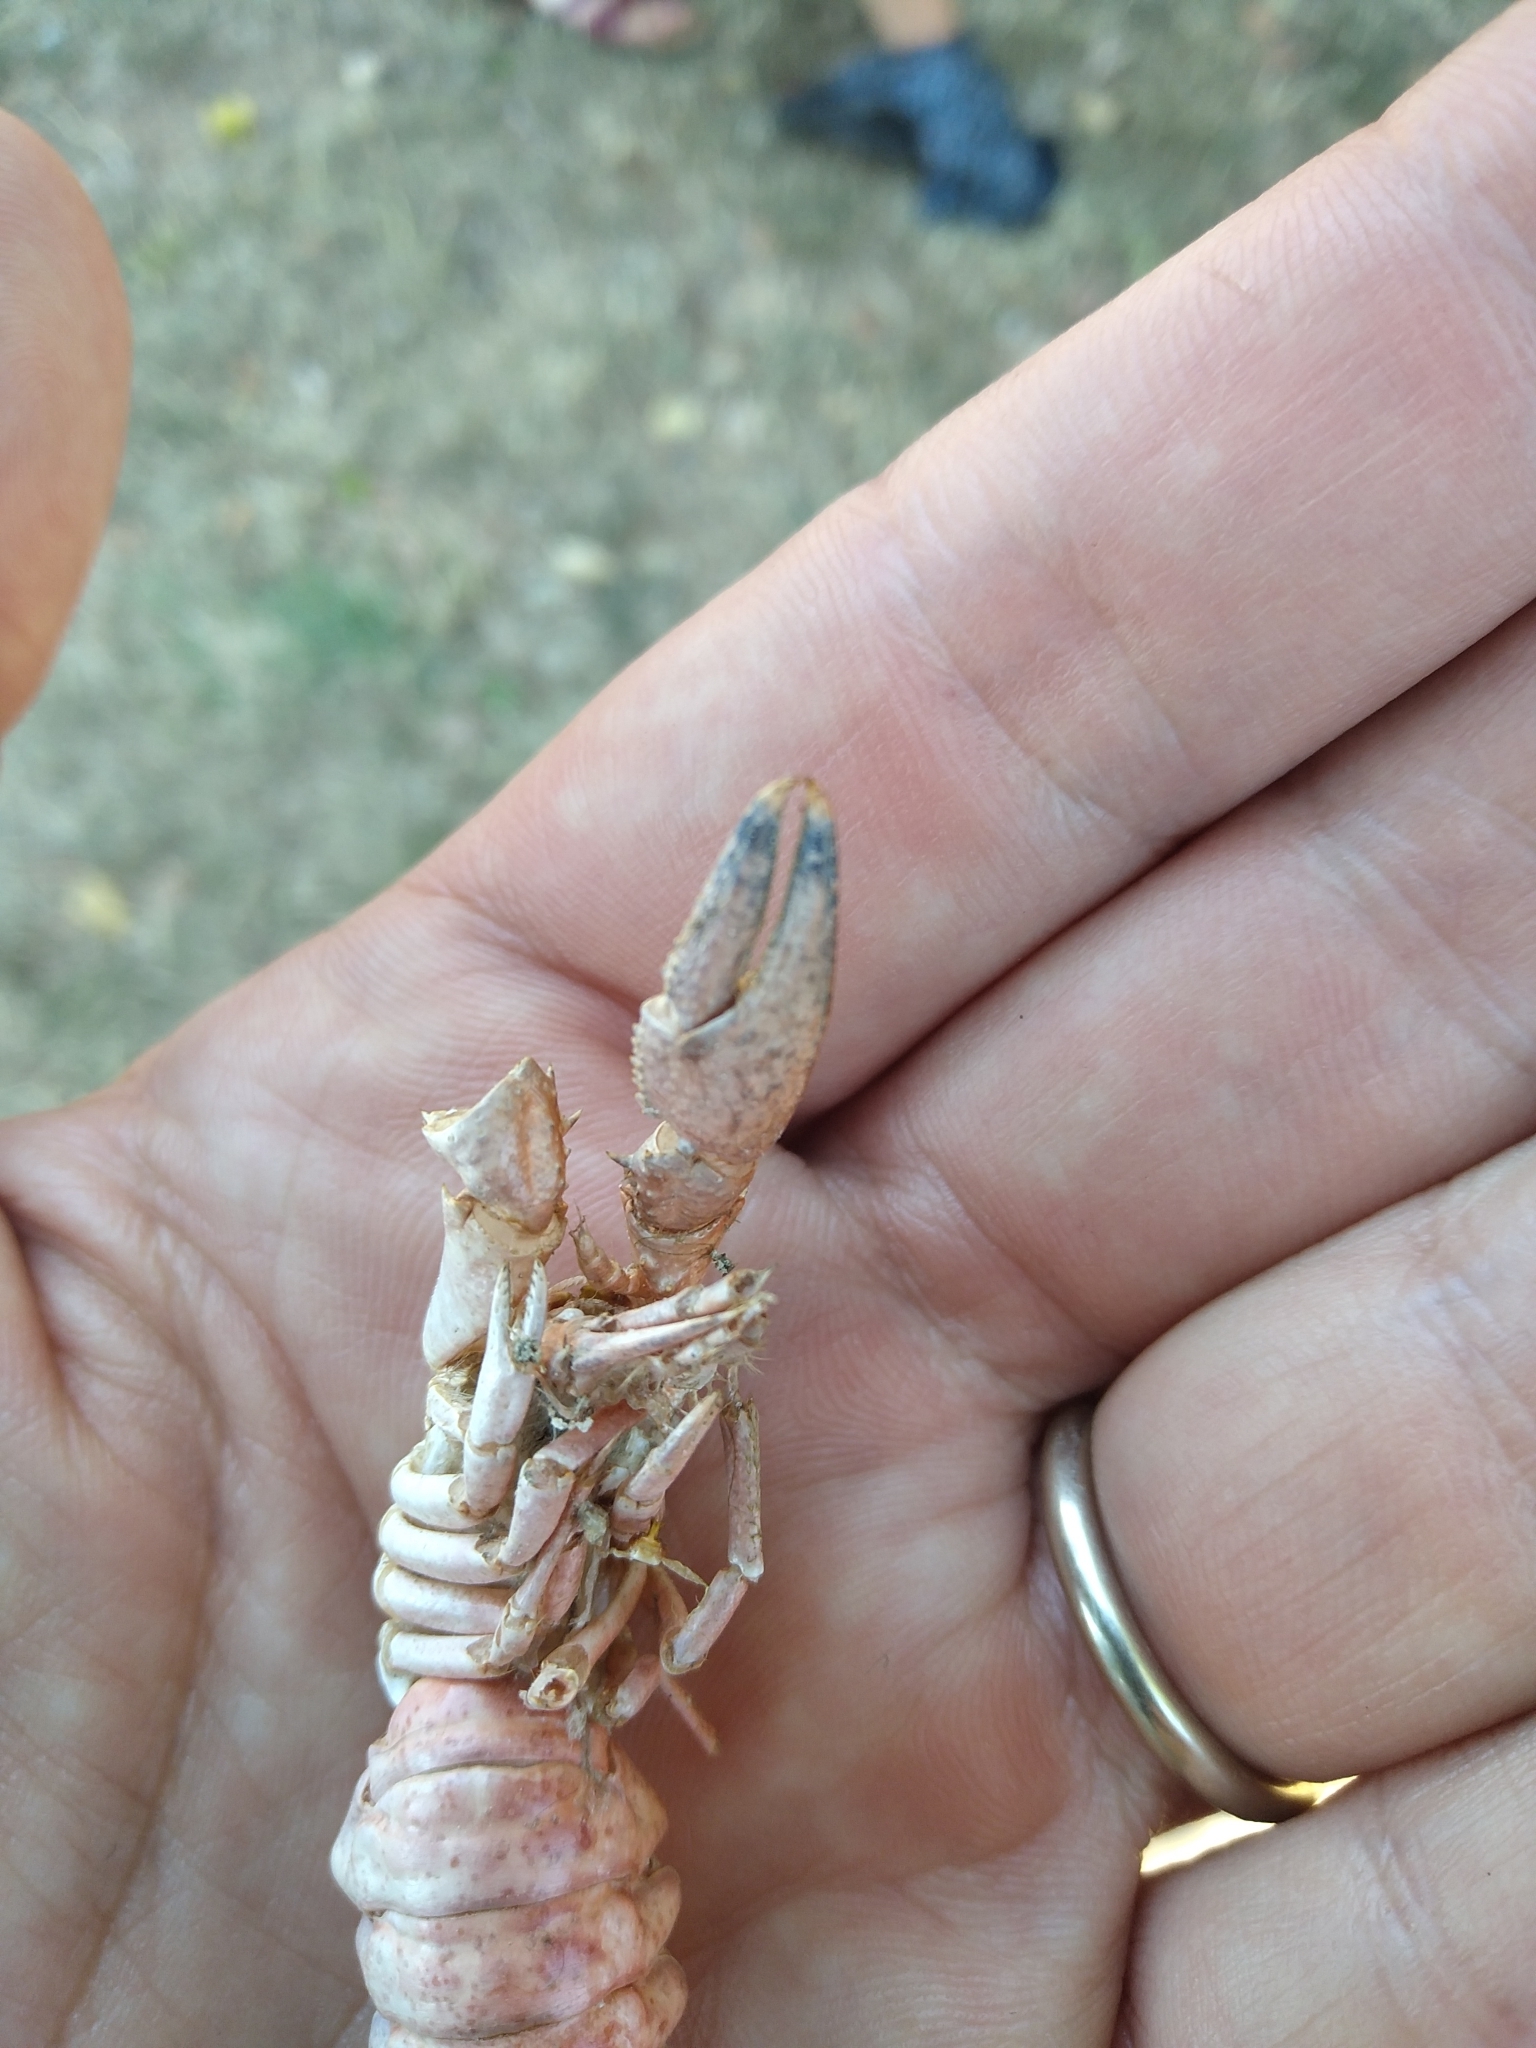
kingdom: Animalia
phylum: Arthropoda
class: Malacostraca
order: Decapoda
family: Cambaridae
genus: Faxonius
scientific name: Faxonius limosus
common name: American crayfish
